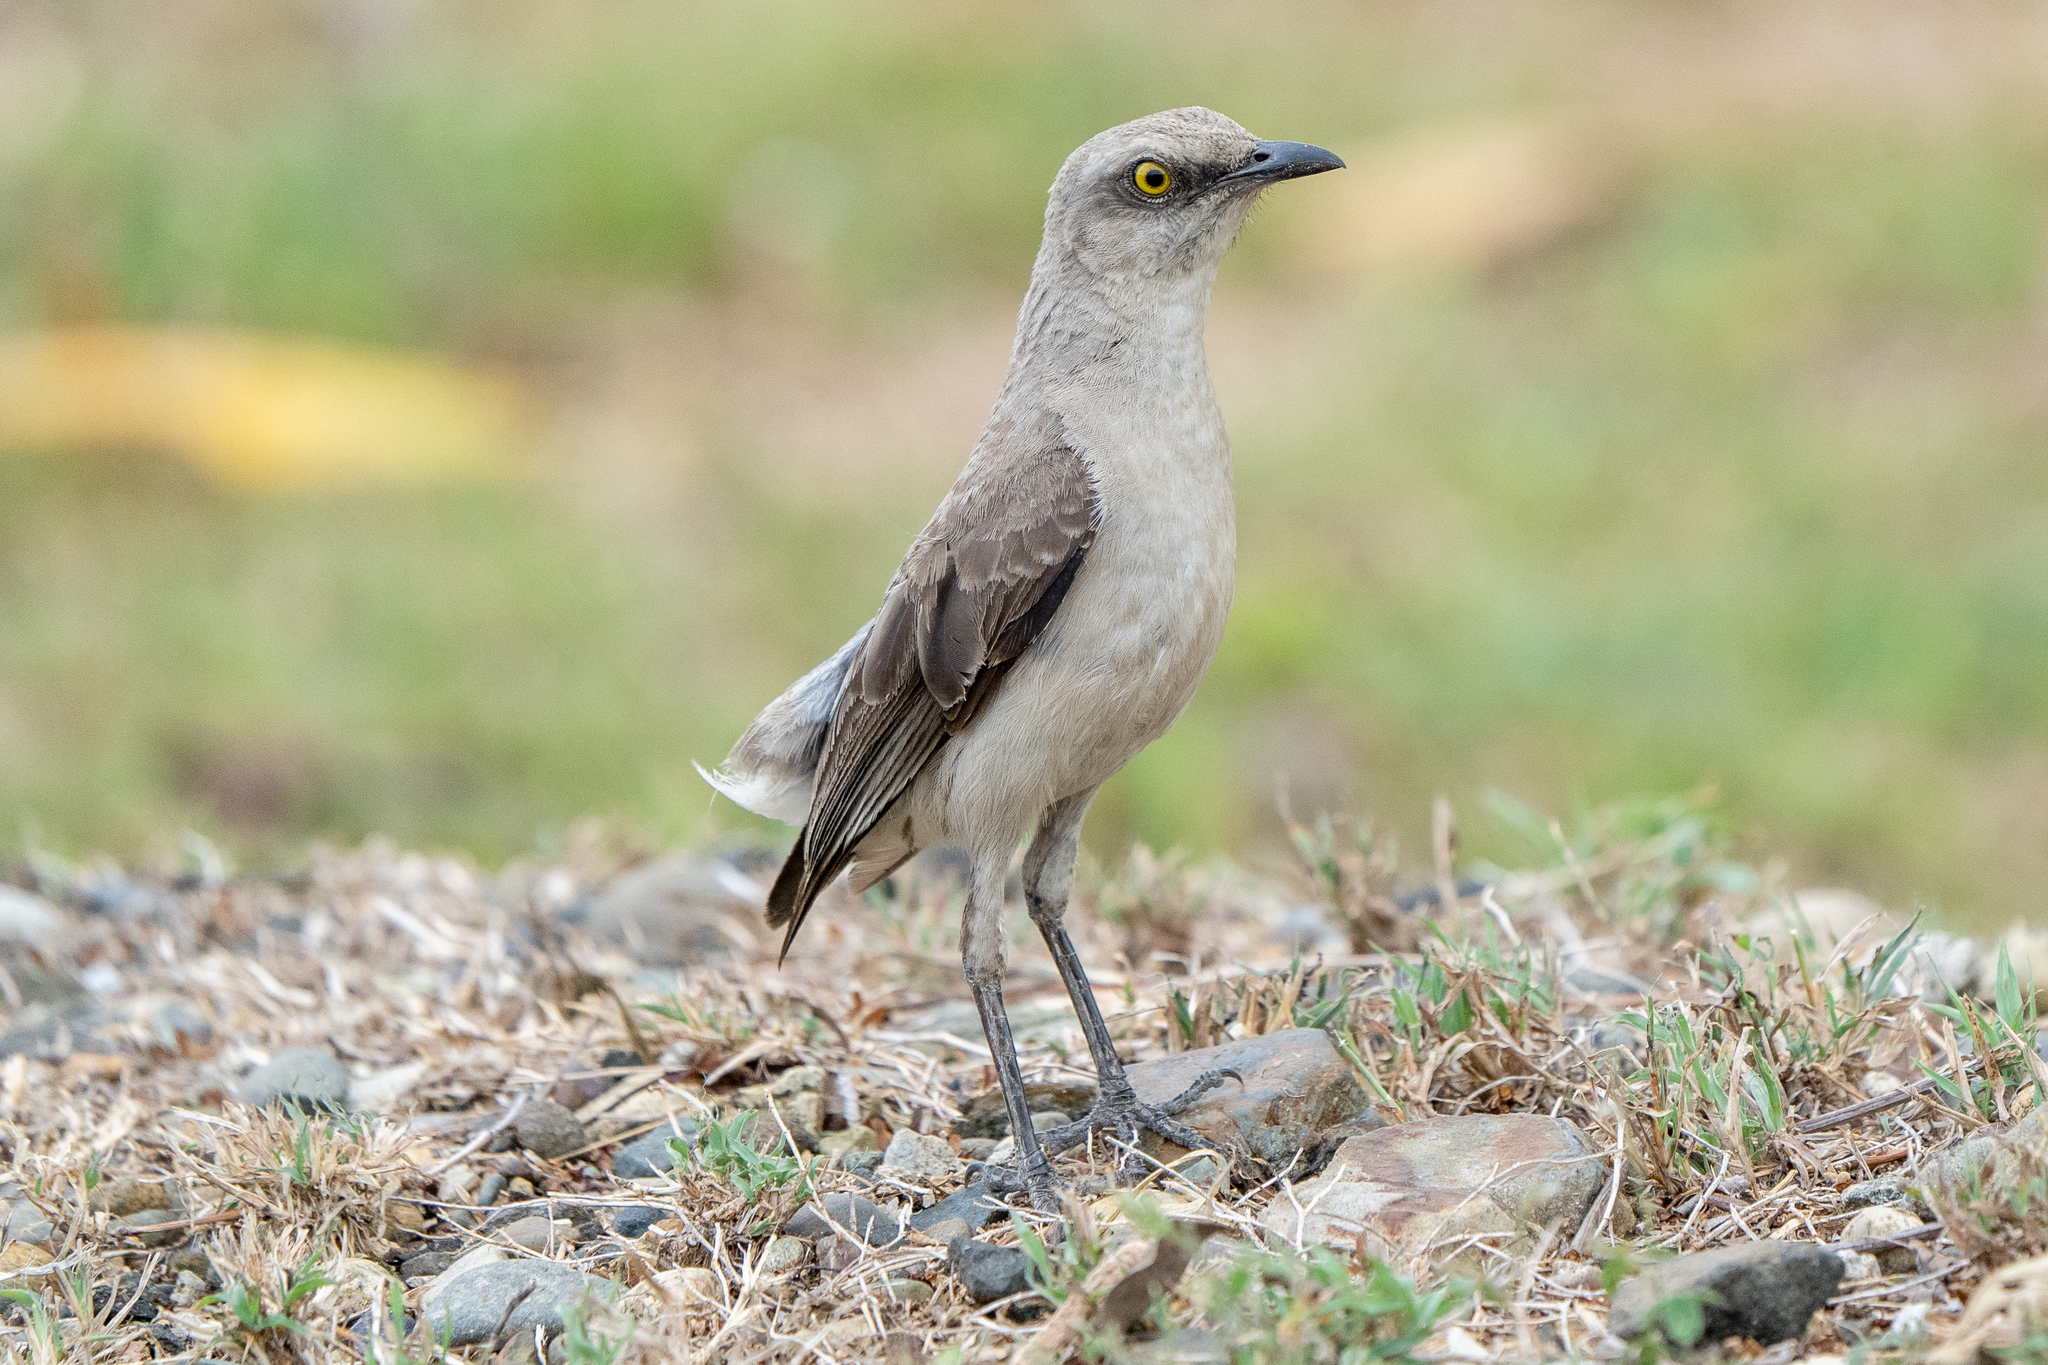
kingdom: Animalia
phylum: Chordata
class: Aves
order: Passeriformes
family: Mimidae
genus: Mimus
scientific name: Mimus gilvus
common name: Tropical mockingbird
